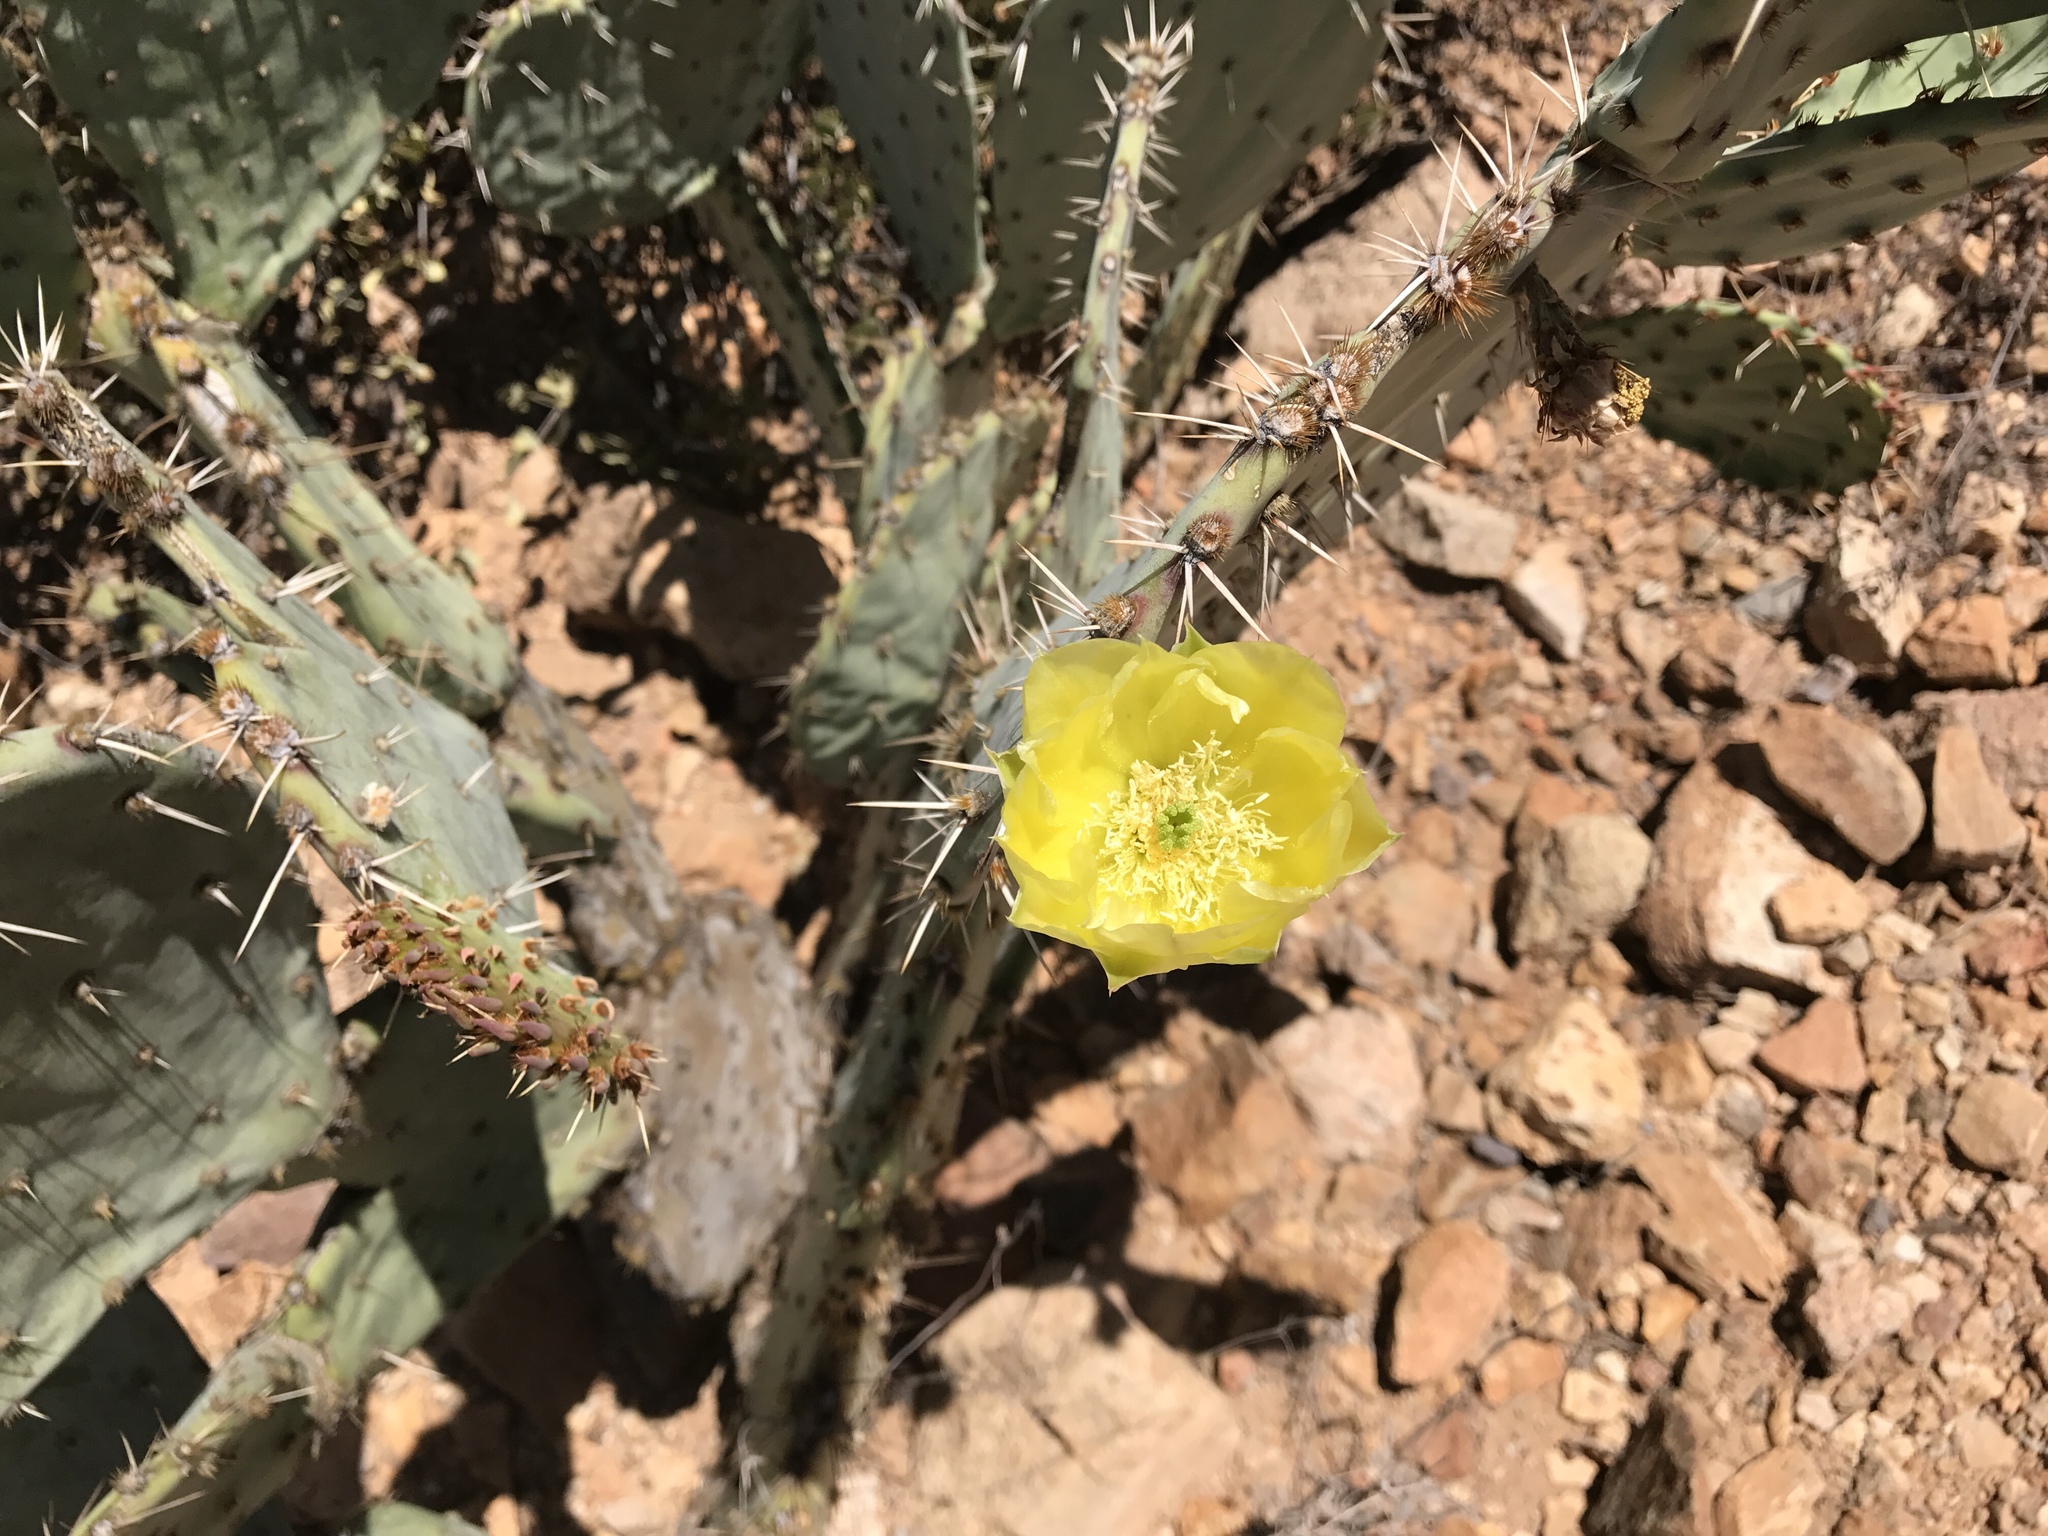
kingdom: Plantae
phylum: Tracheophyta
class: Magnoliopsida
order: Caryophyllales
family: Cactaceae
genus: Opuntia
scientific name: Opuntia engelmannii
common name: Cactus-apple
